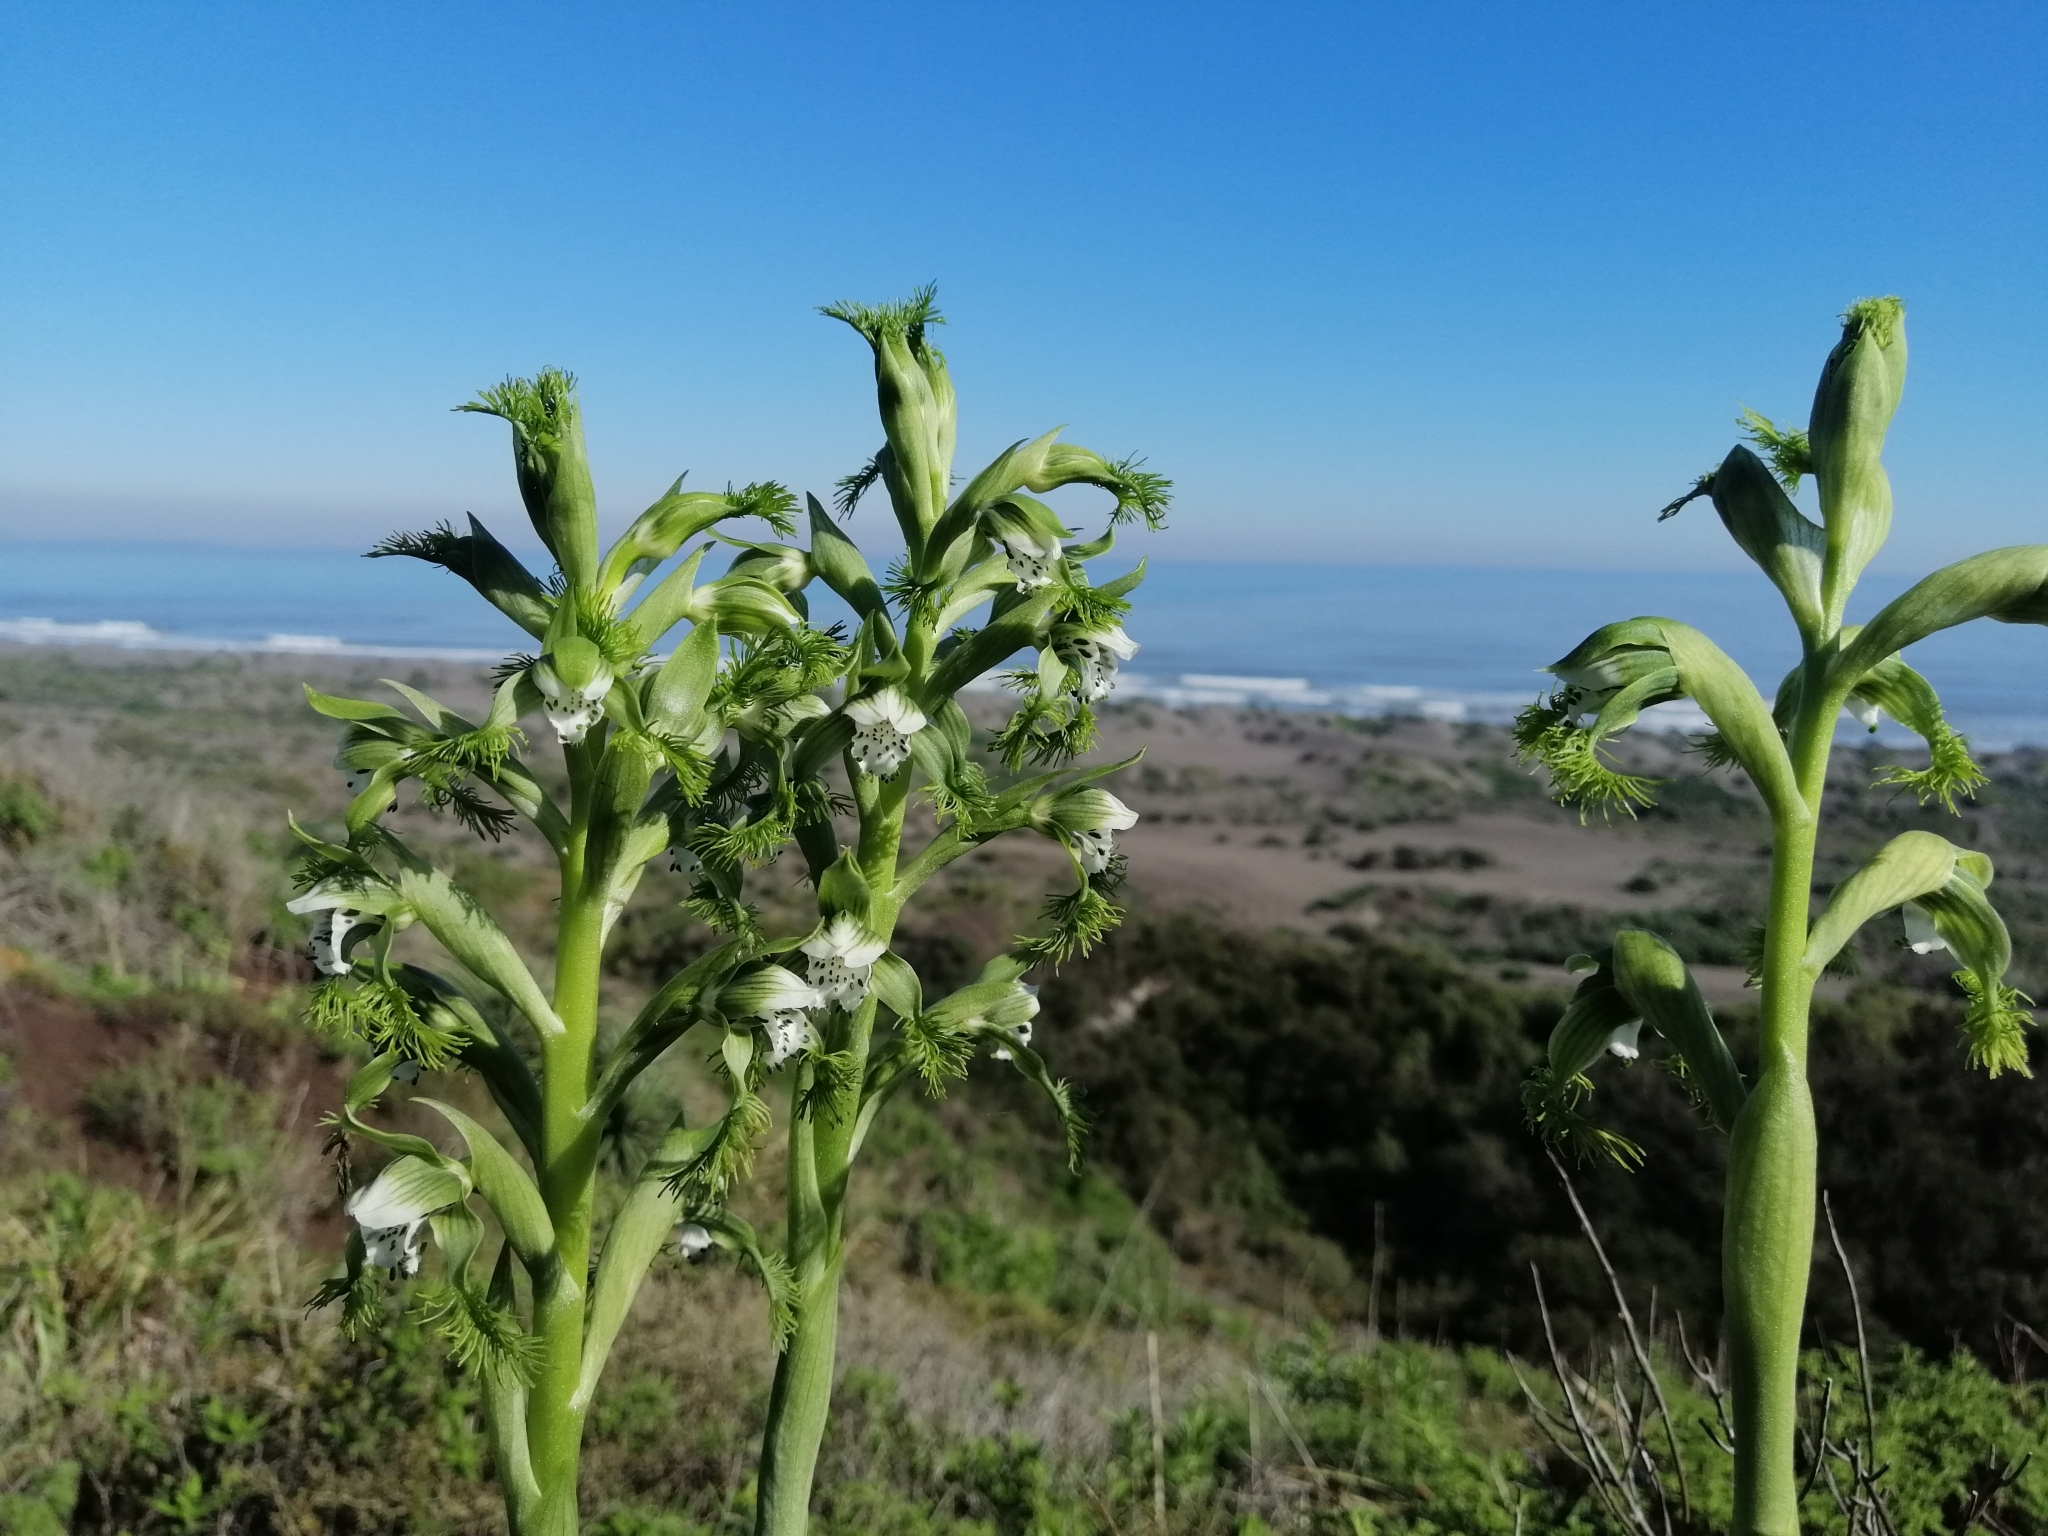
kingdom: Plantae
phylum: Tracheophyta
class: Liliopsida
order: Asparagales
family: Orchidaceae
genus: Bipinnula
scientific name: Bipinnula fimbriata
